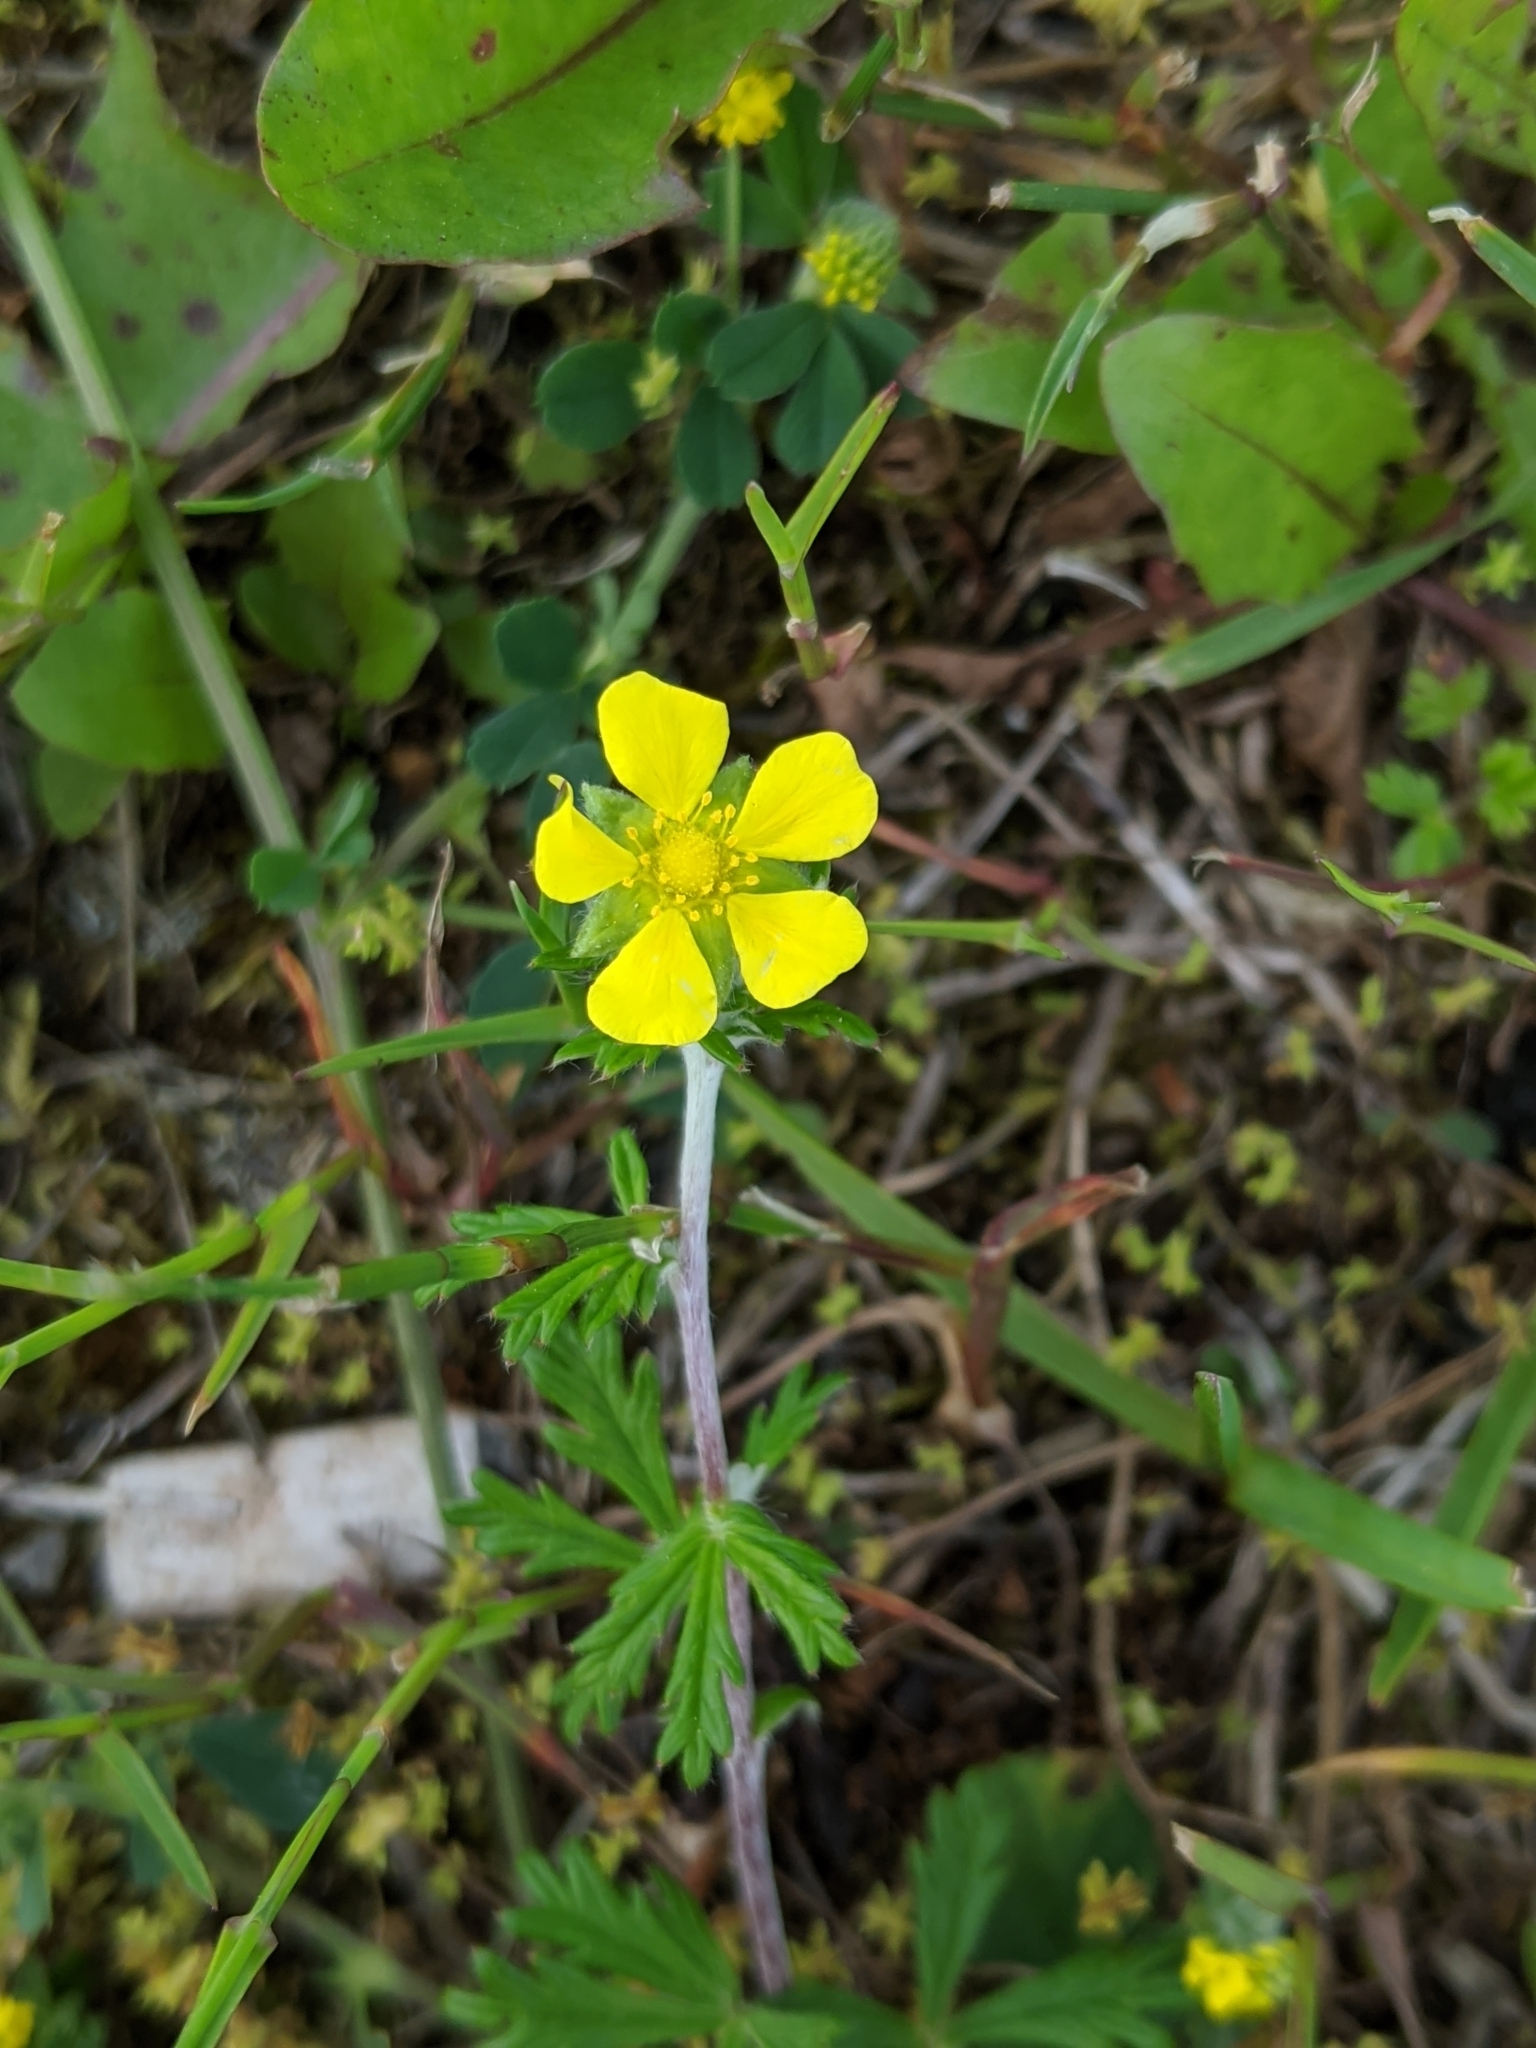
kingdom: Plantae
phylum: Tracheophyta
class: Magnoliopsida
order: Rosales
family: Rosaceae
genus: Potentilla
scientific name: Potentilla argentea
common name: Hoary cinquefoil
